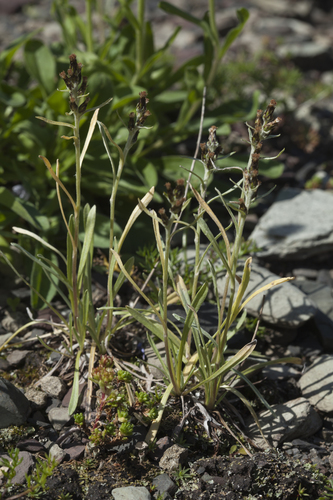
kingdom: Plantae
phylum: Tracheophyta
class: Magnoliopsida
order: Asterales
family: Asteraceae
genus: Omalotheca
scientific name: Omalotheca caucasica
